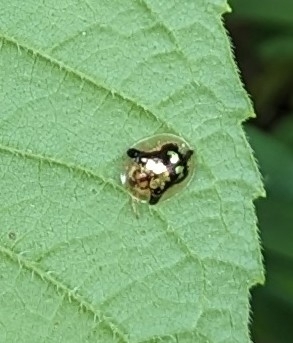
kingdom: Animalia
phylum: Arthropoda
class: Insecta
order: Coleoptera
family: Chrysomelidae
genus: Deloyala
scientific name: Deloyala guttata
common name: Mottled tortoise beetle
